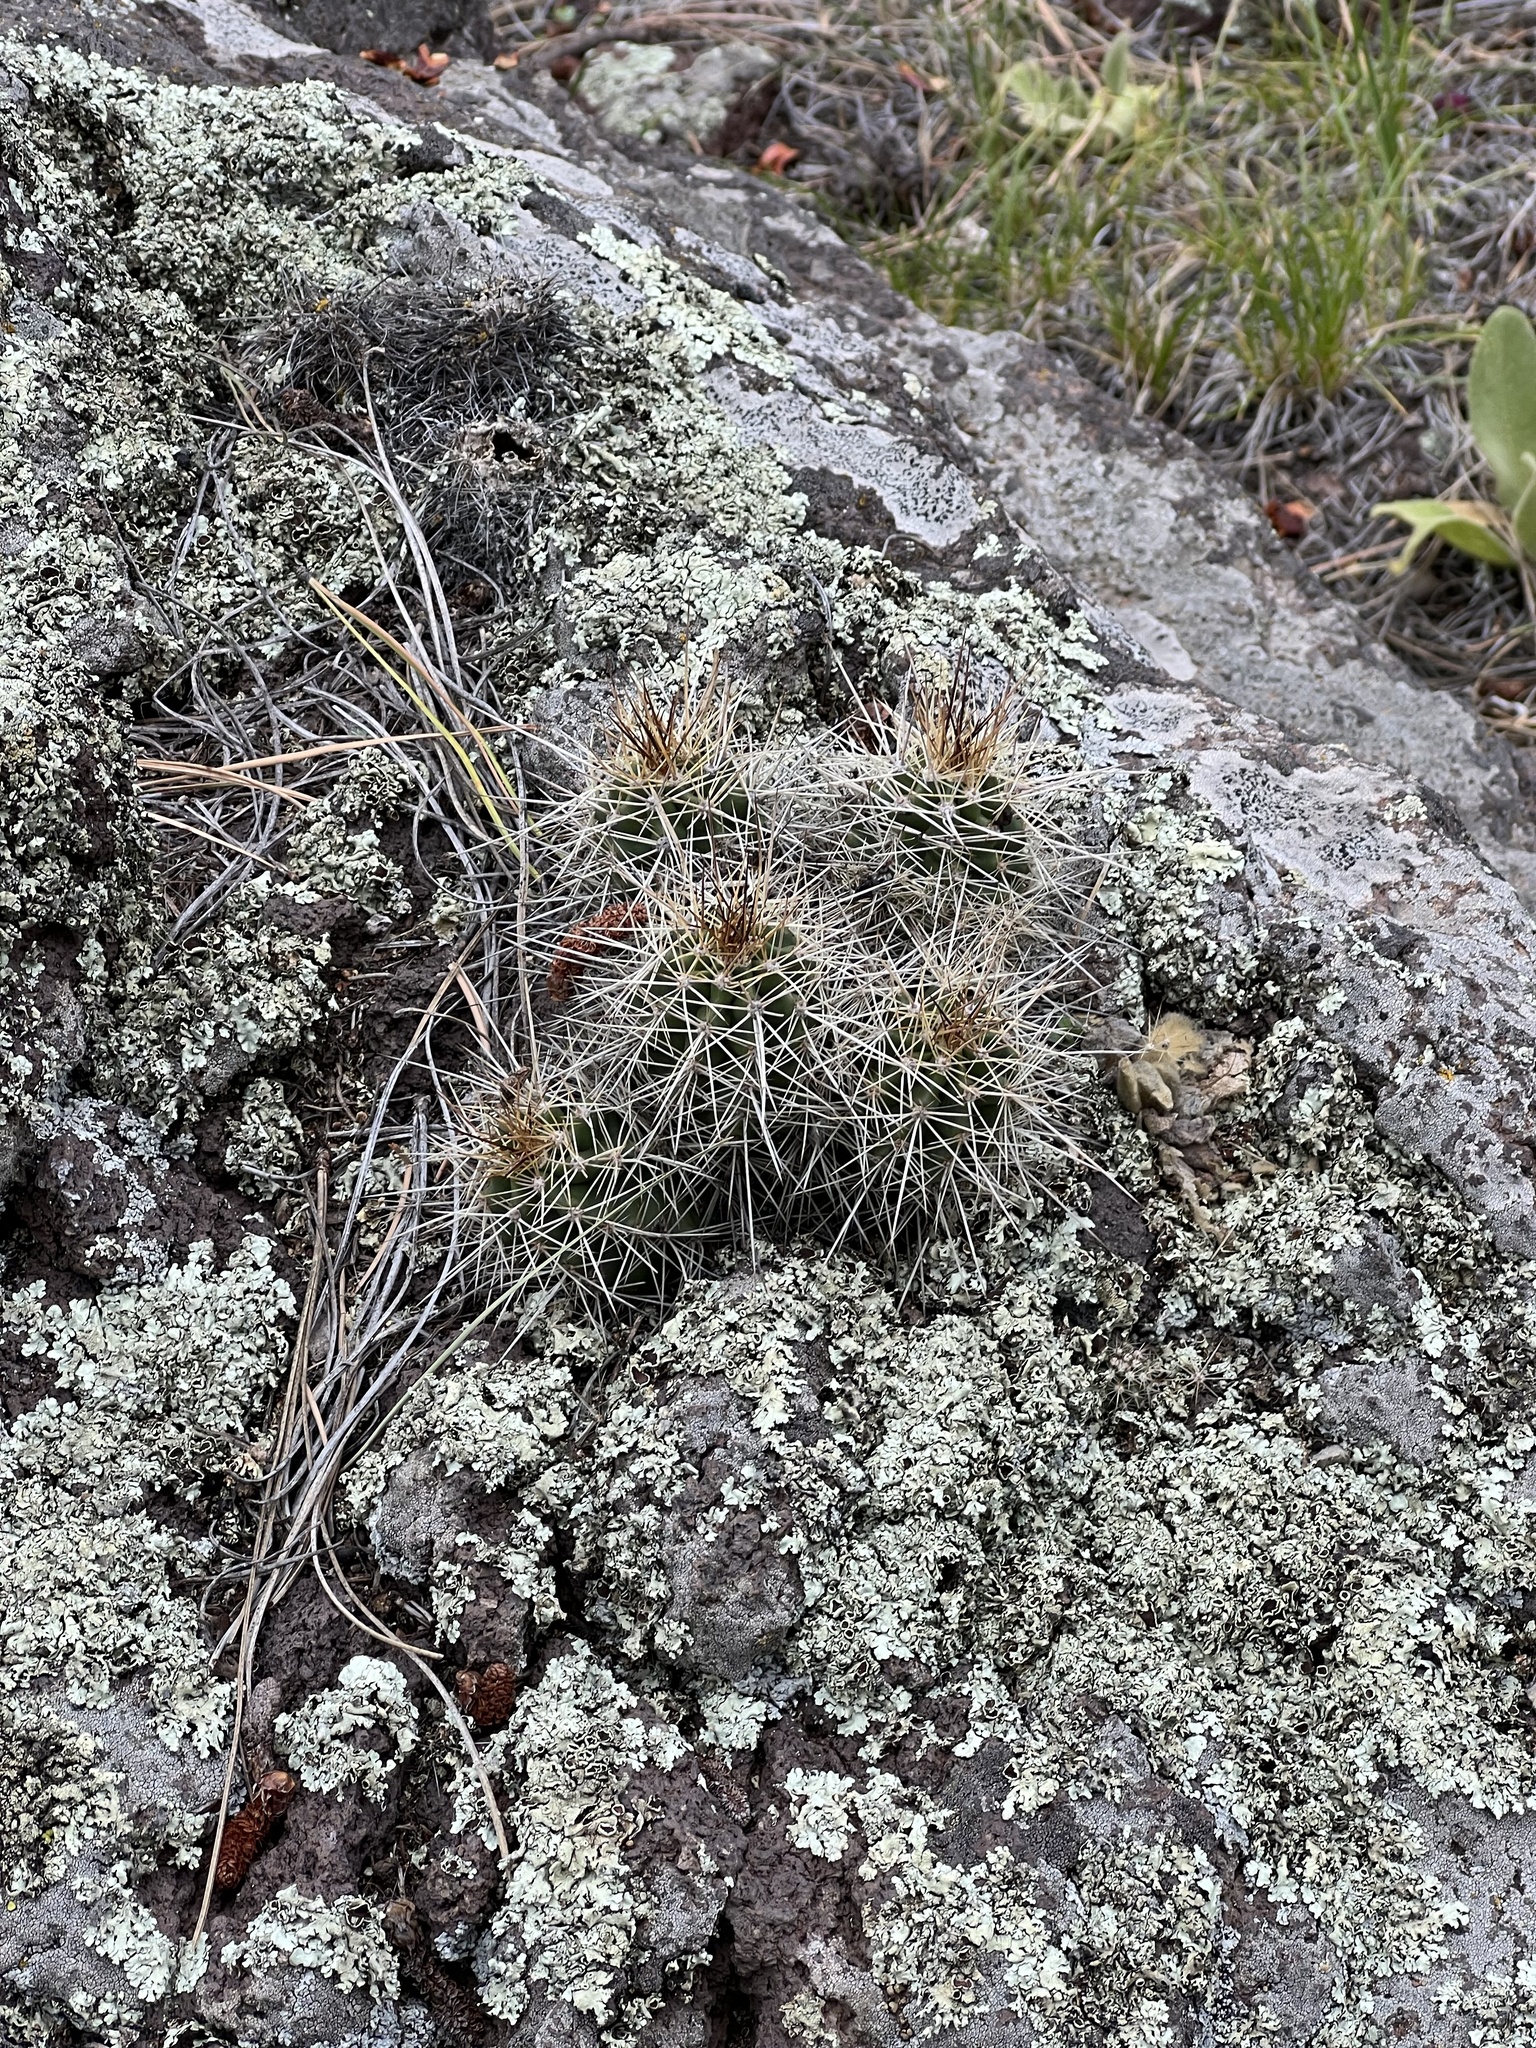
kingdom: Plantae
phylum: Tracheophyta
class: Magnoliopsida
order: Caryophyllales
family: Cactaceae
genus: Echinocereus
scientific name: Echinocereus bakeri
